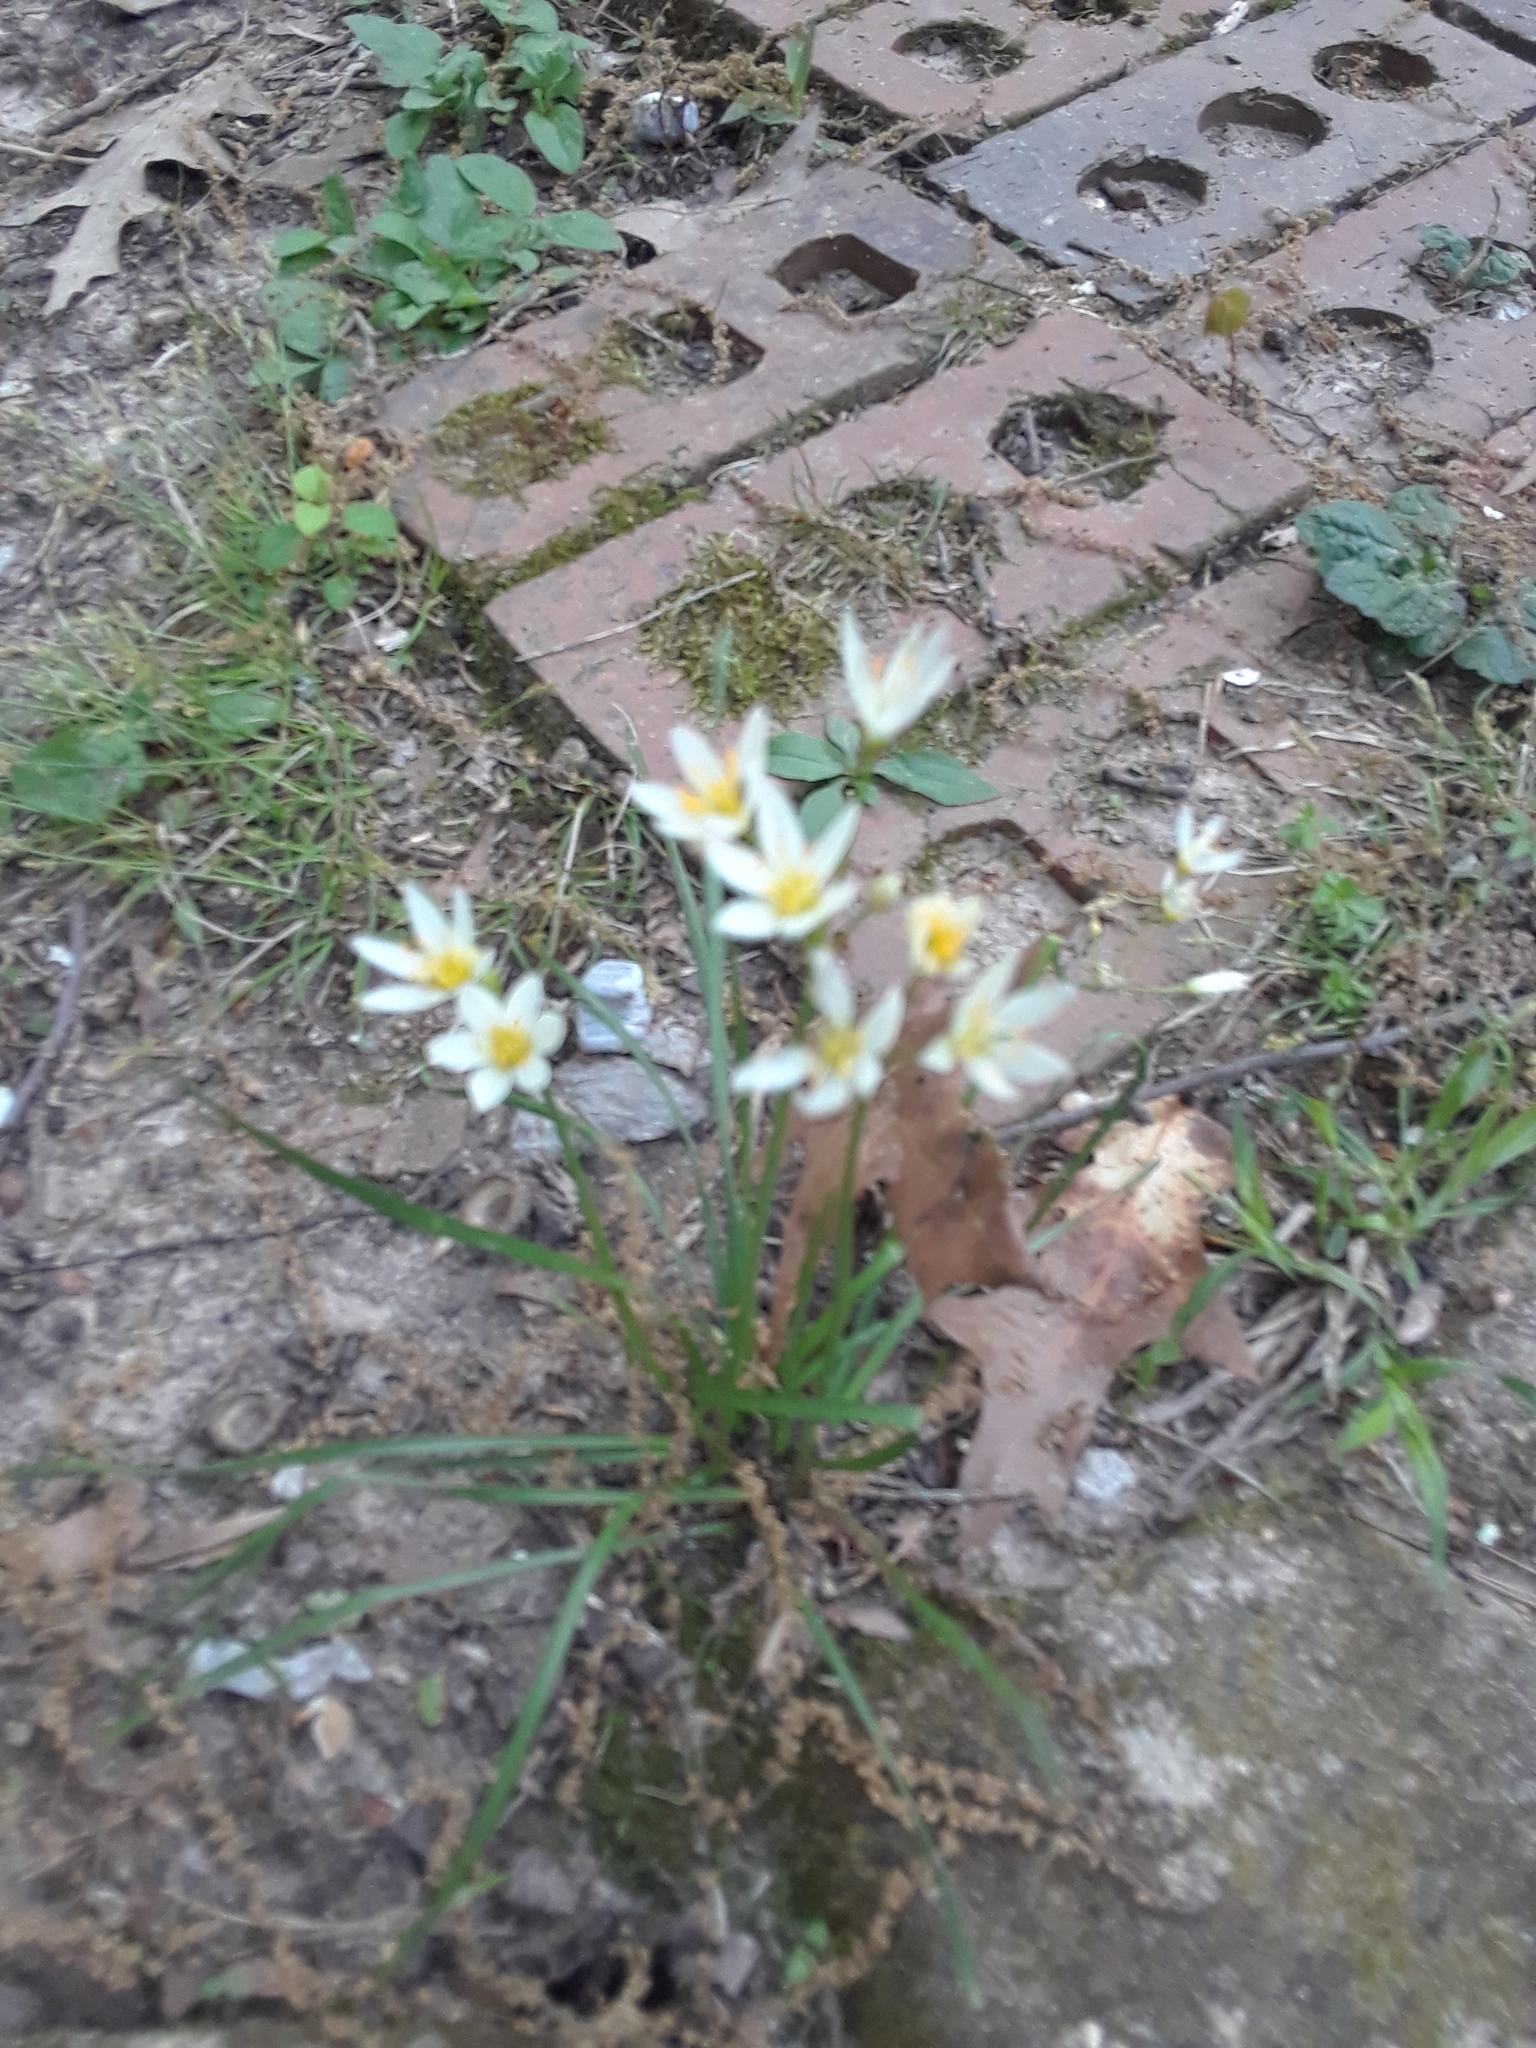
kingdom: Plantae
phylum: Tracheophyta
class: Liliopsida
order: Asparagales
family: Amaryllidaceae
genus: Nothoscordum
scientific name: Nothoscordum bivalve
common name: Crow-poison
